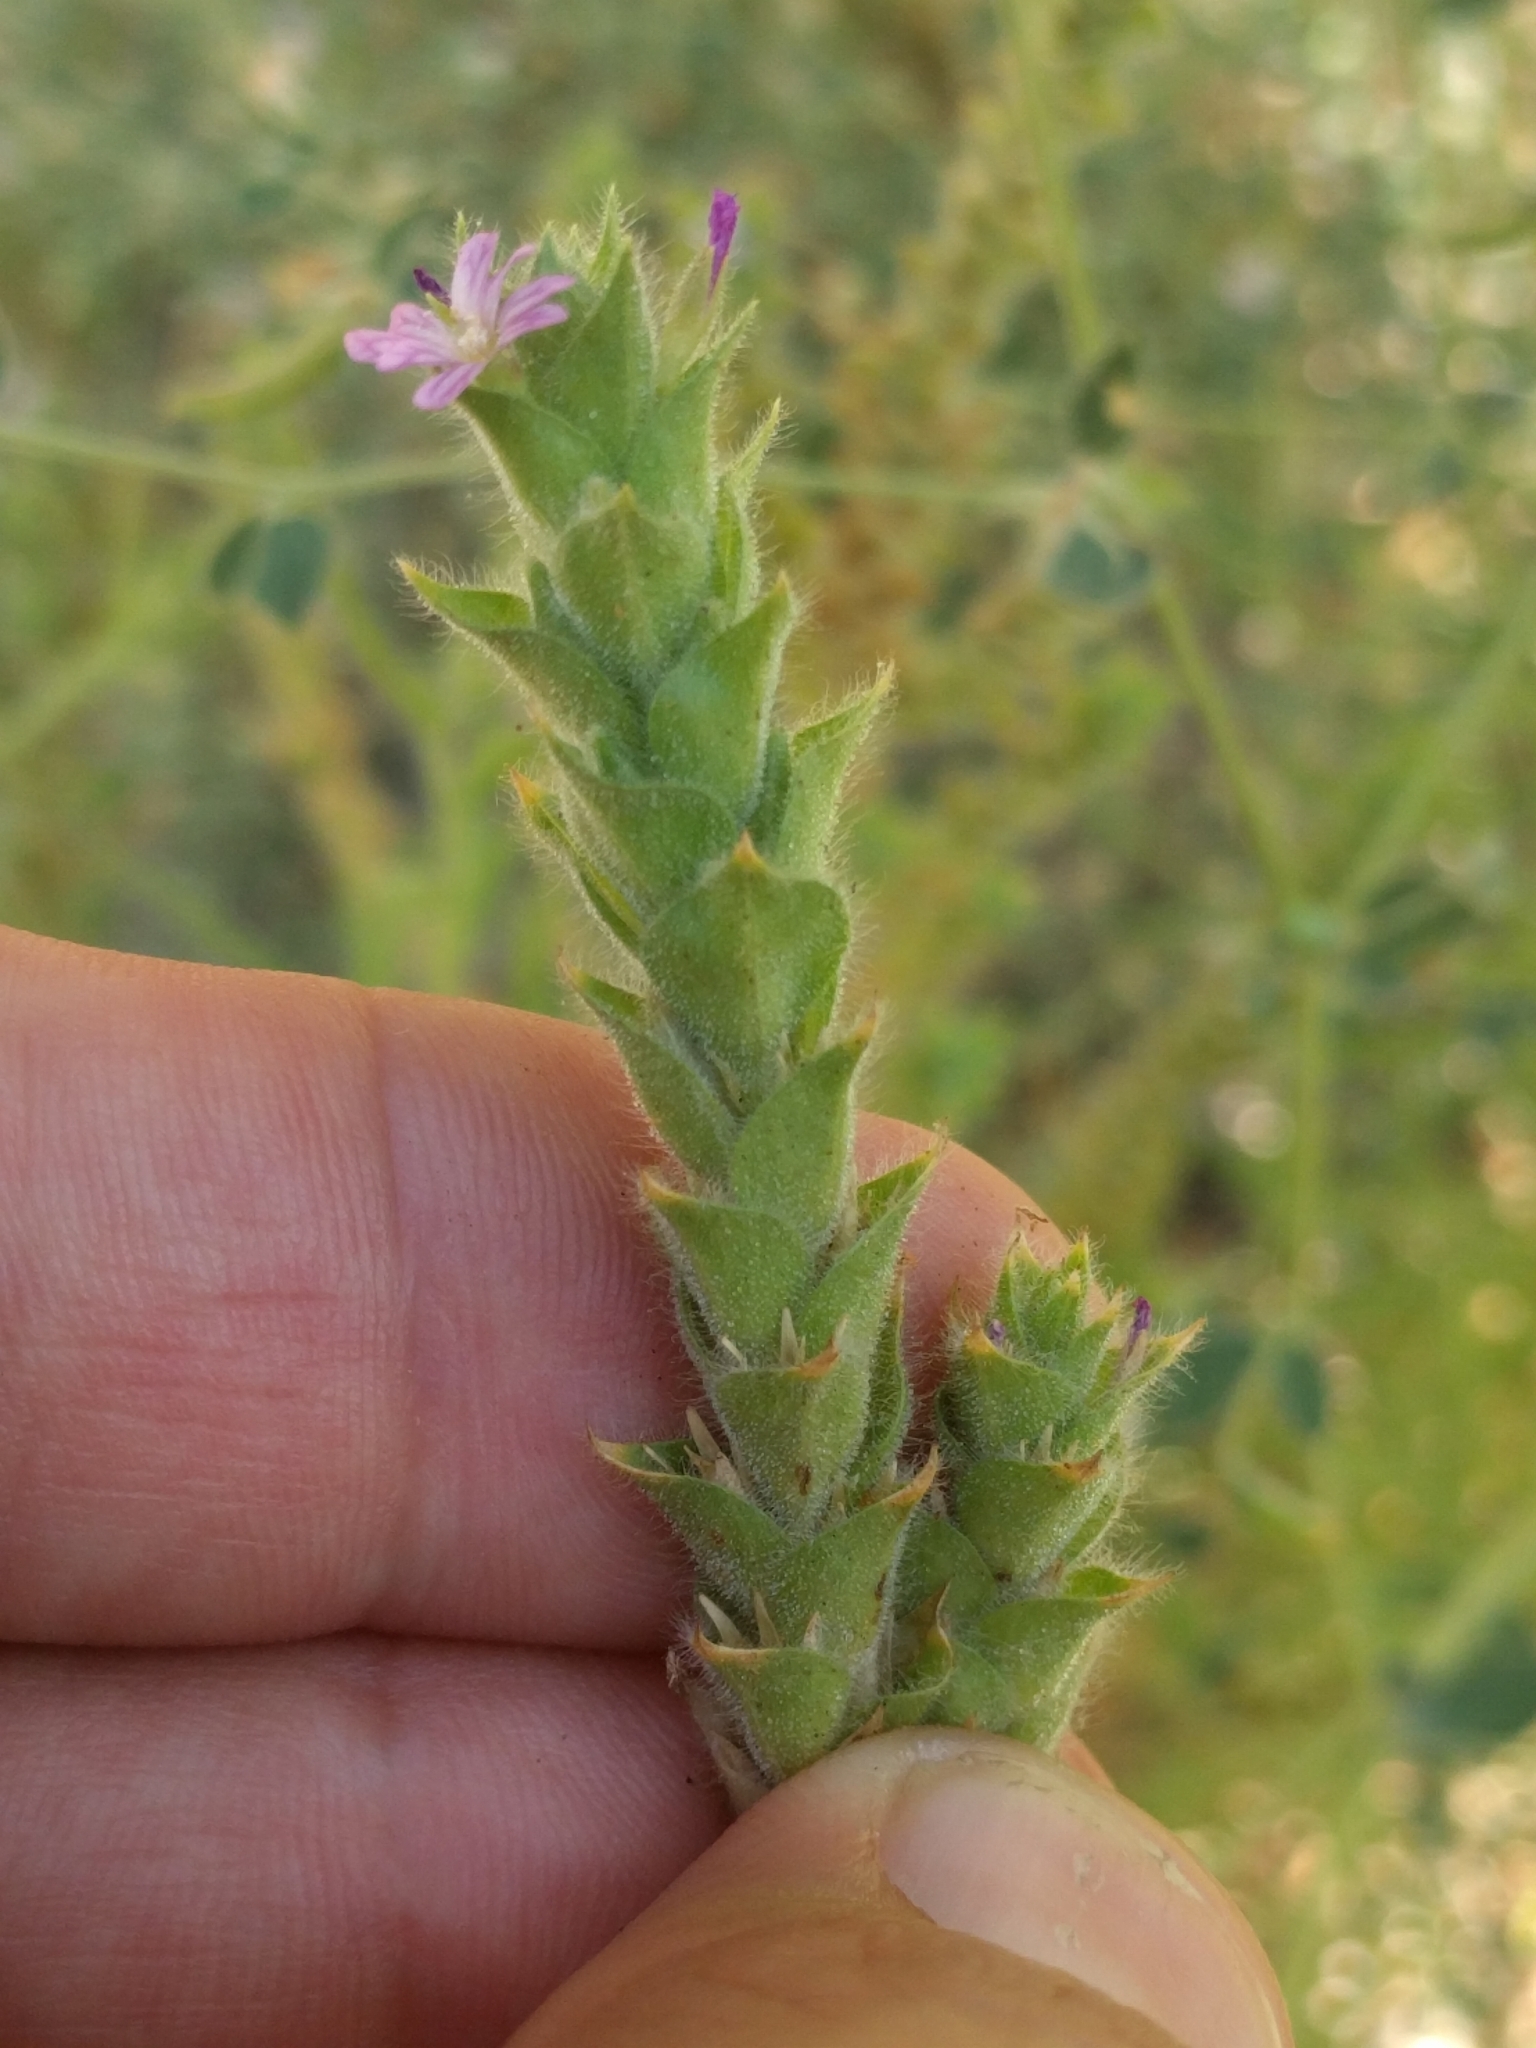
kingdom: Plantae
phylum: Tracheophyta
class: Magnoliopsida
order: Myrtales
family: Onagraceae
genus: Epilobium
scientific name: Epilobium densiflorum
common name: Dense spike-primrose
